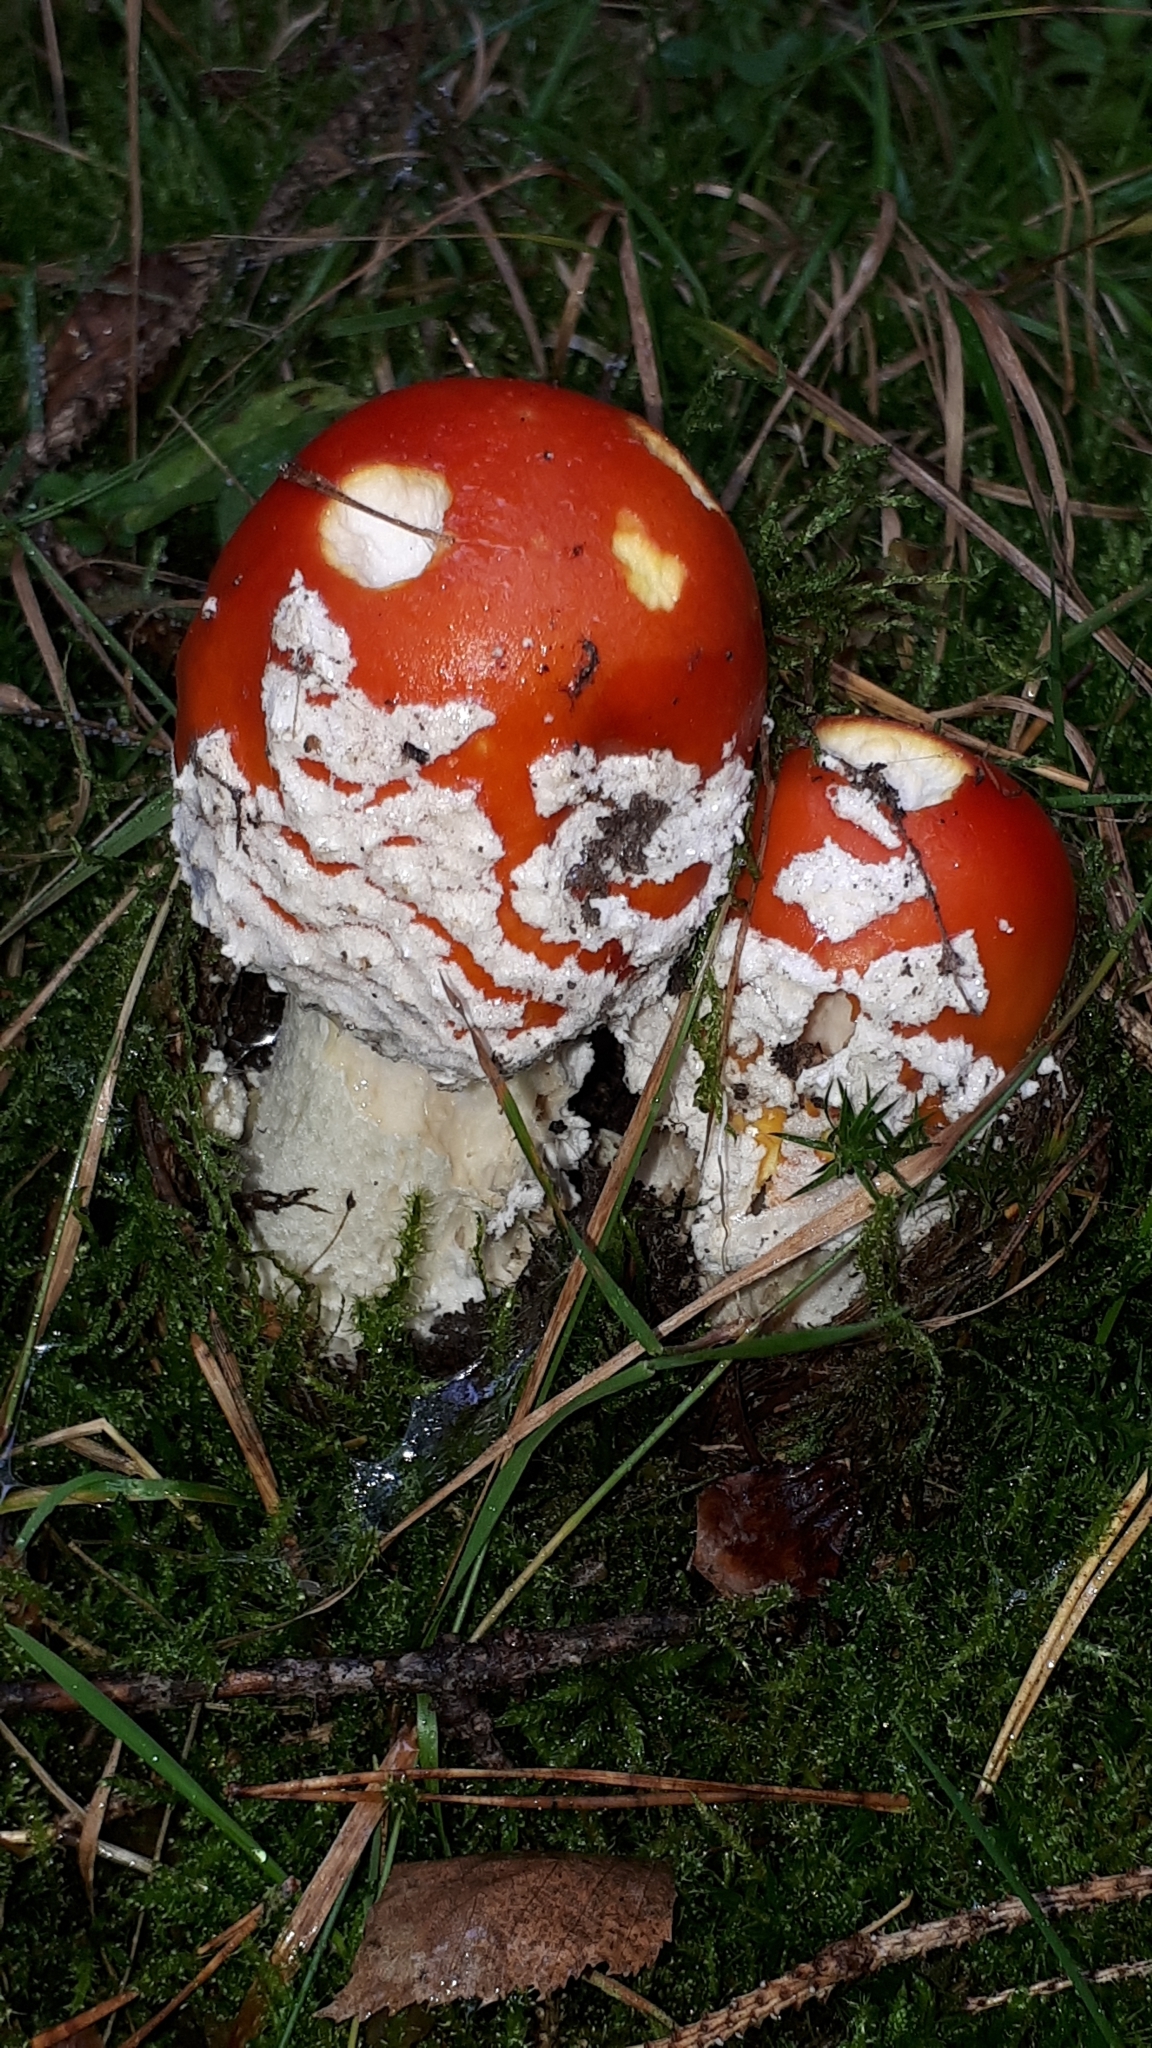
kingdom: Fungi
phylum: Basidiomycota
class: Agaricomycetes
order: Agaricales
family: Amanitaceae
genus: Amanita
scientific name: Amanita muscaria
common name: Fly agaric
